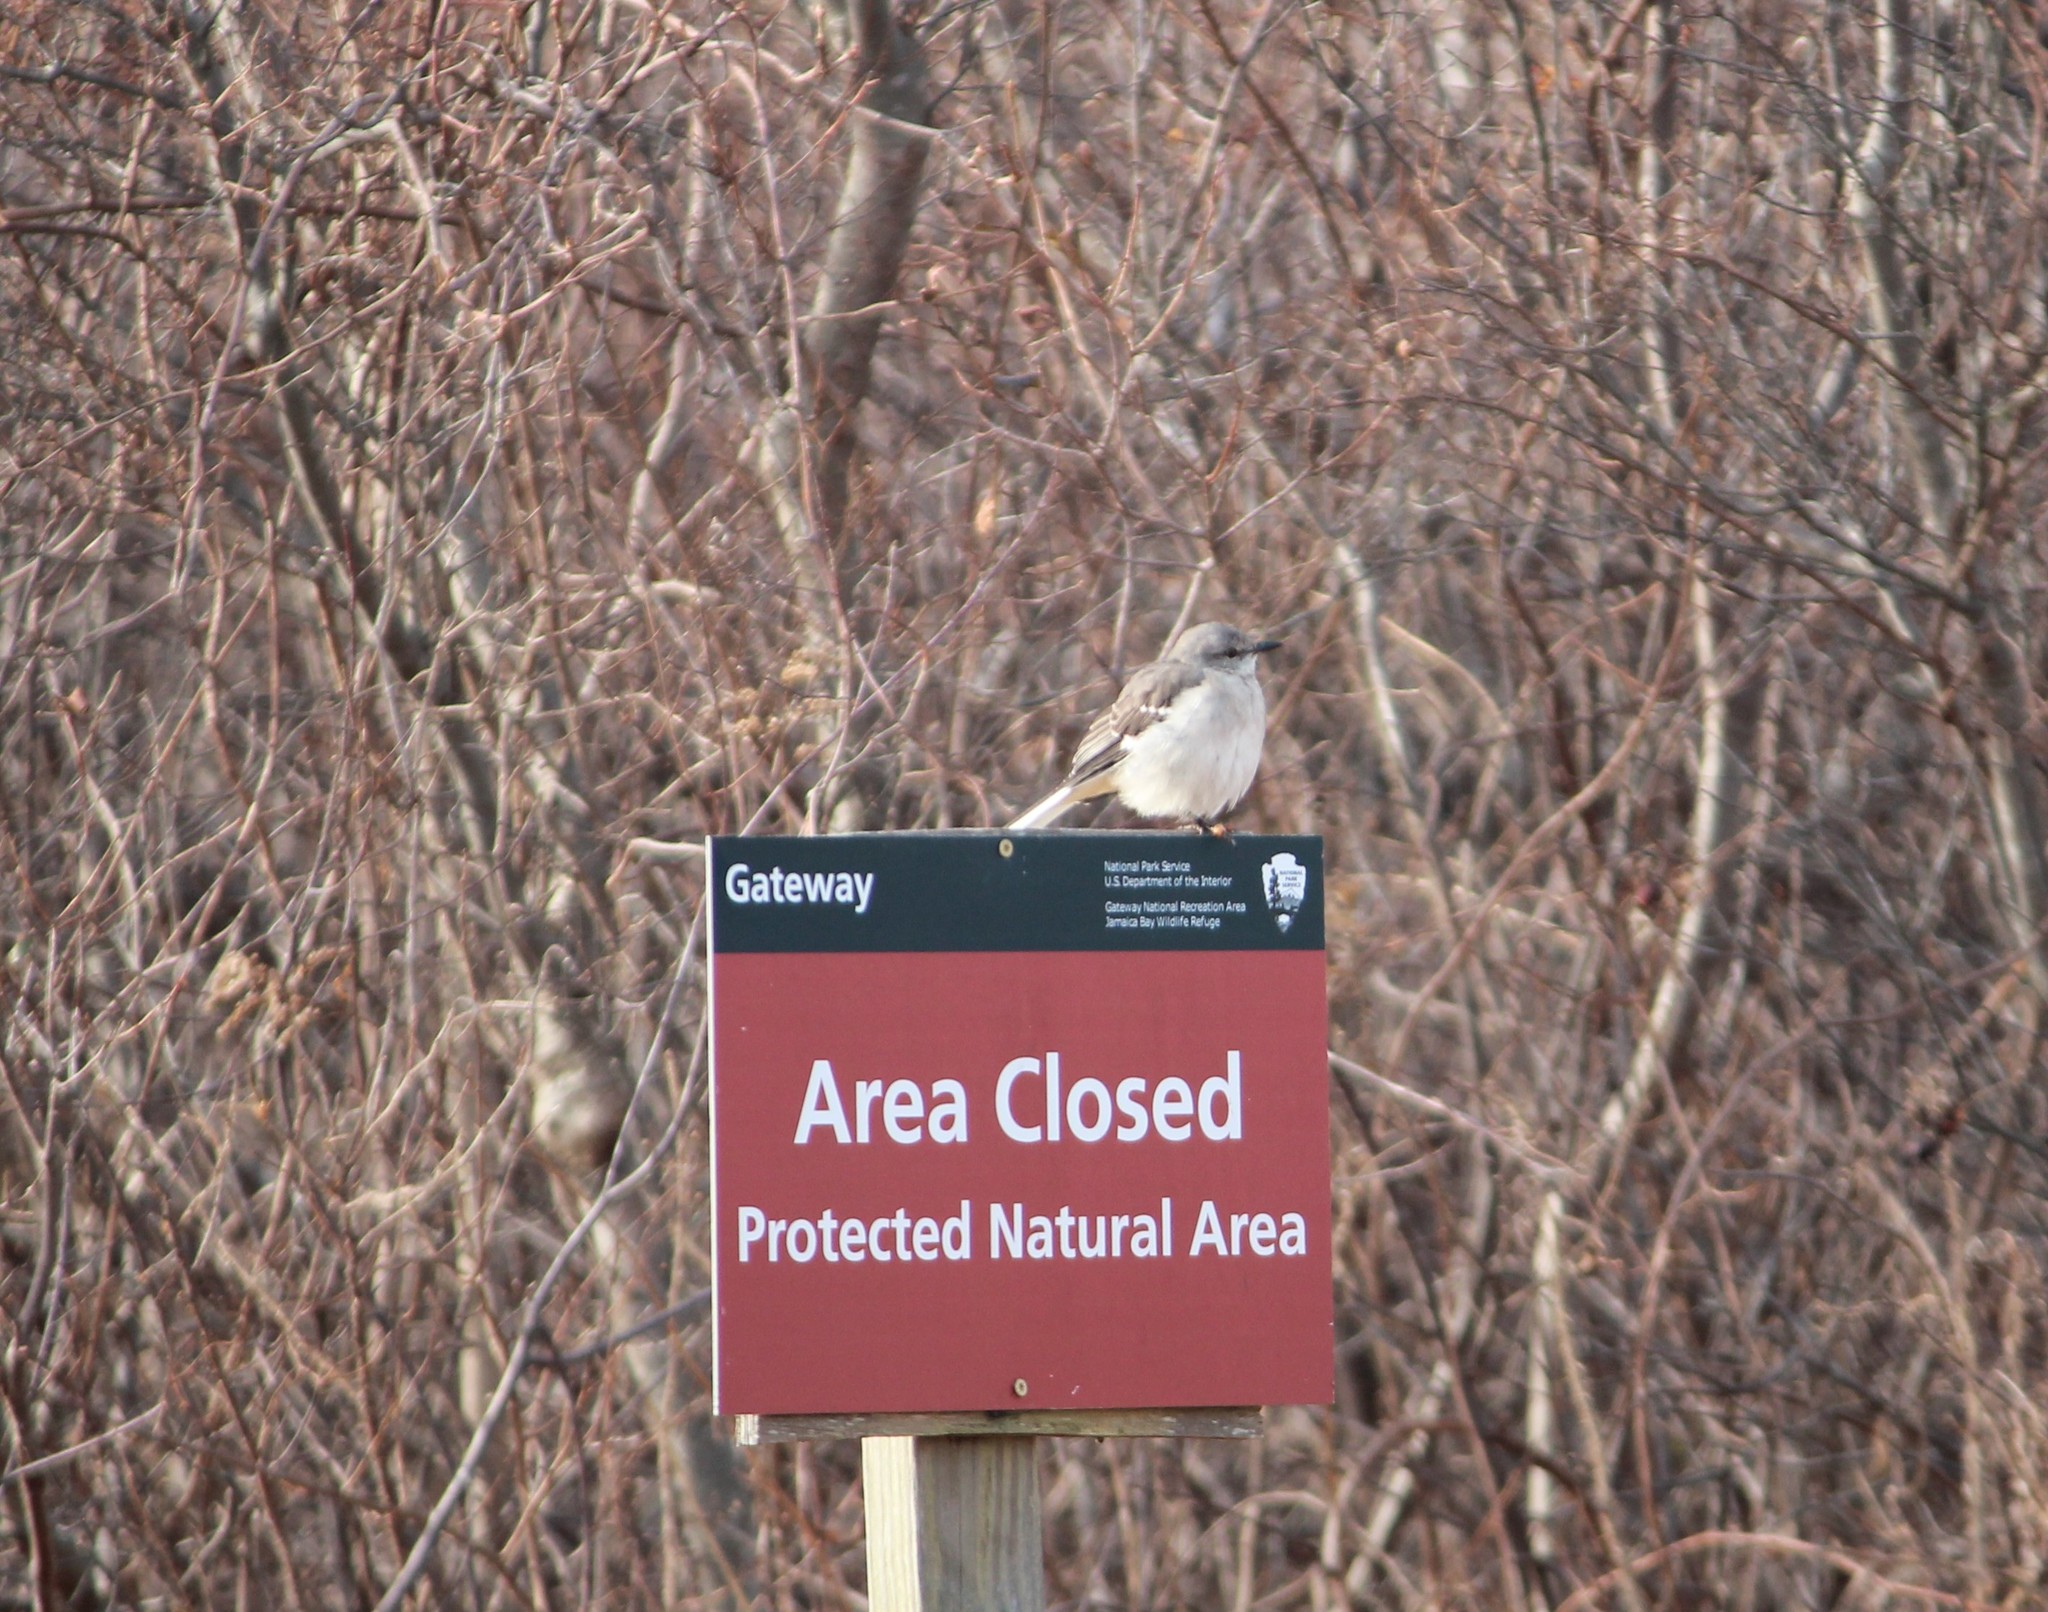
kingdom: Animalia
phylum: Chordata
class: Aves
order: Passeriformes
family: Mimidae
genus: Mimus
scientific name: Mimus polyglottos
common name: Northern mockingbird
